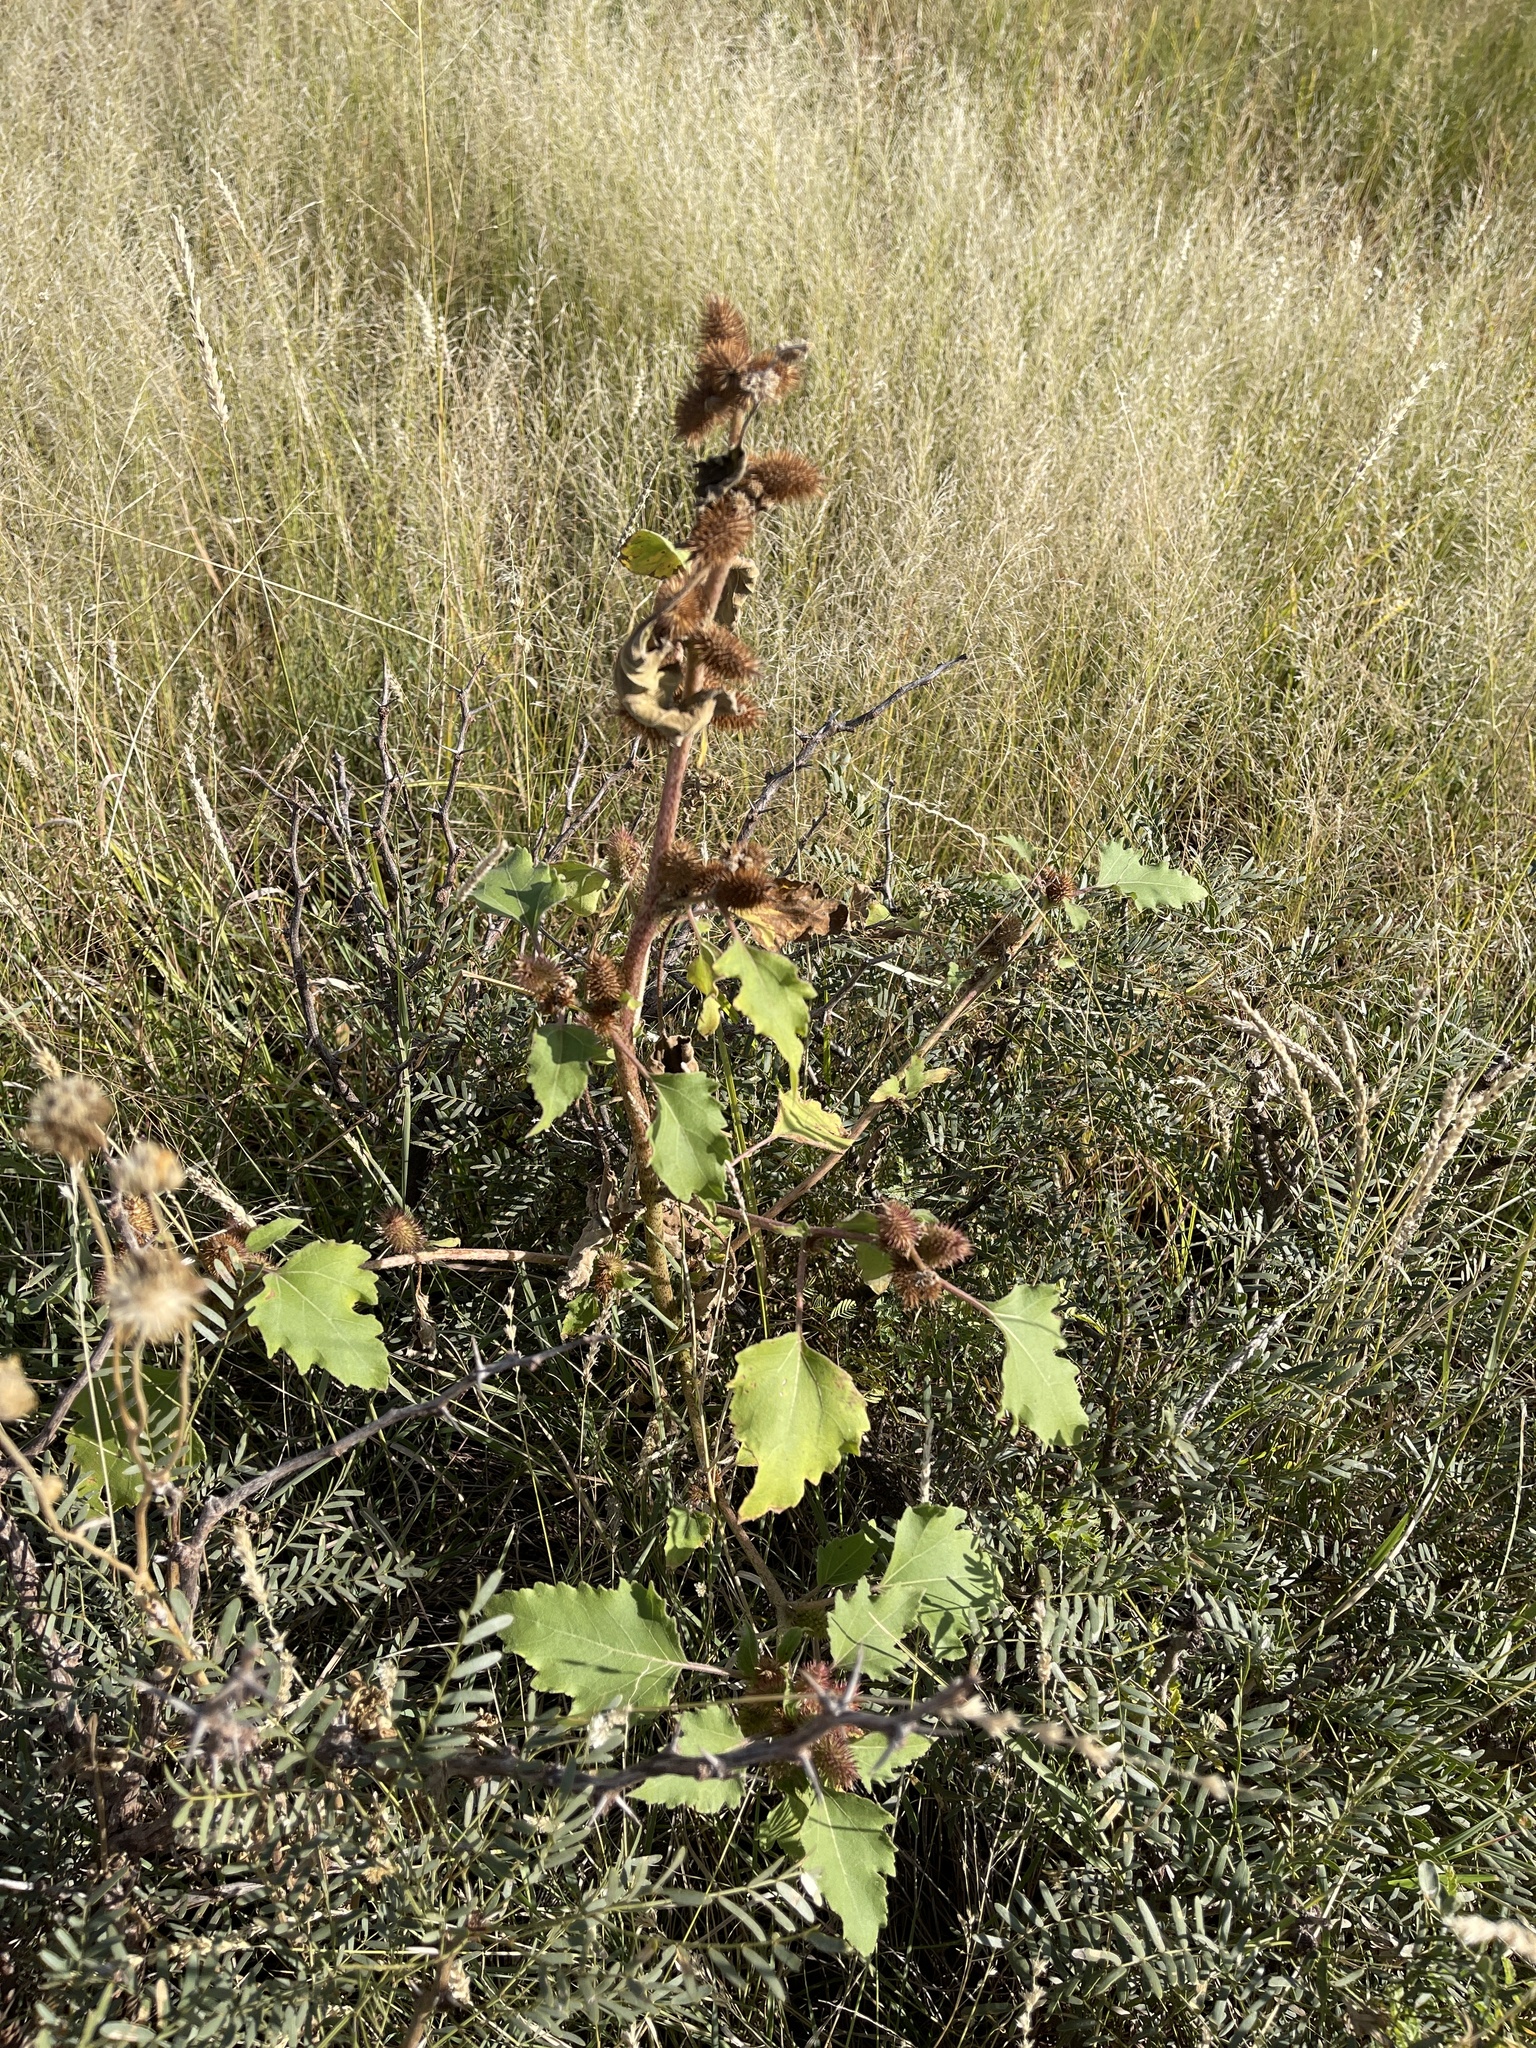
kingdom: Plantae
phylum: Tracheophyta
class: Magnoliopsida
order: Asterales
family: Asteraceae
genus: Xanthium
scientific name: Xanthium strumarium
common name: Rough cocklebur
